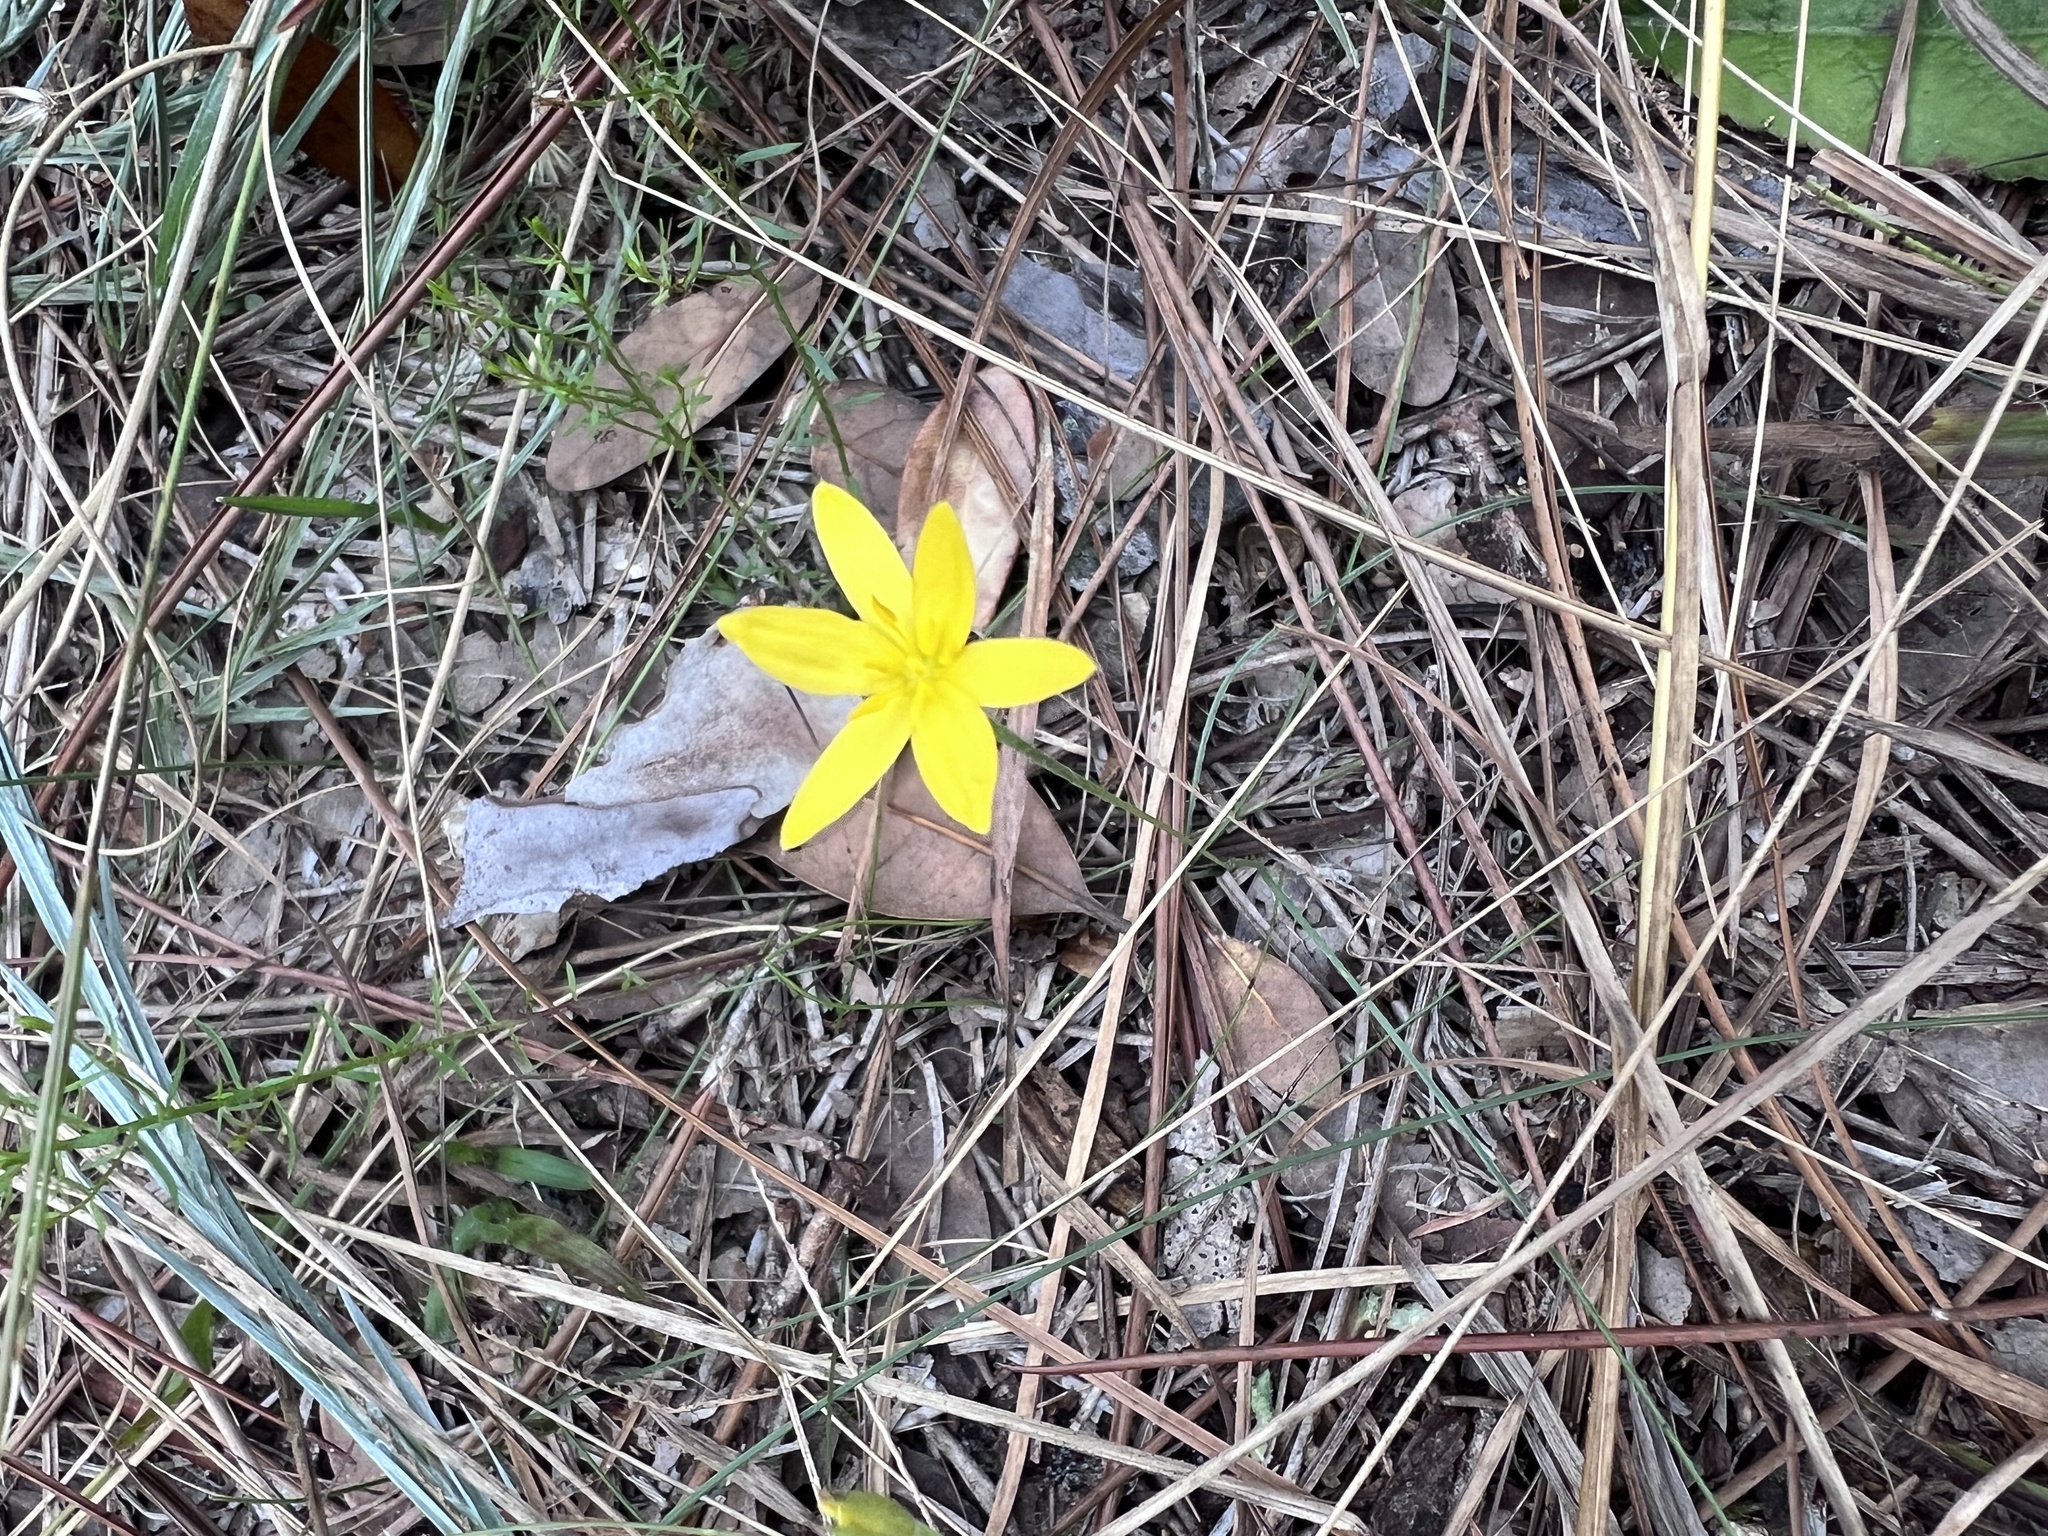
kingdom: Plantae
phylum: Tracheophyta
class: Liliopsida
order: Asparagales
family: Hypoxidaceae
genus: Hypoxis
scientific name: Hypoxis juncea
